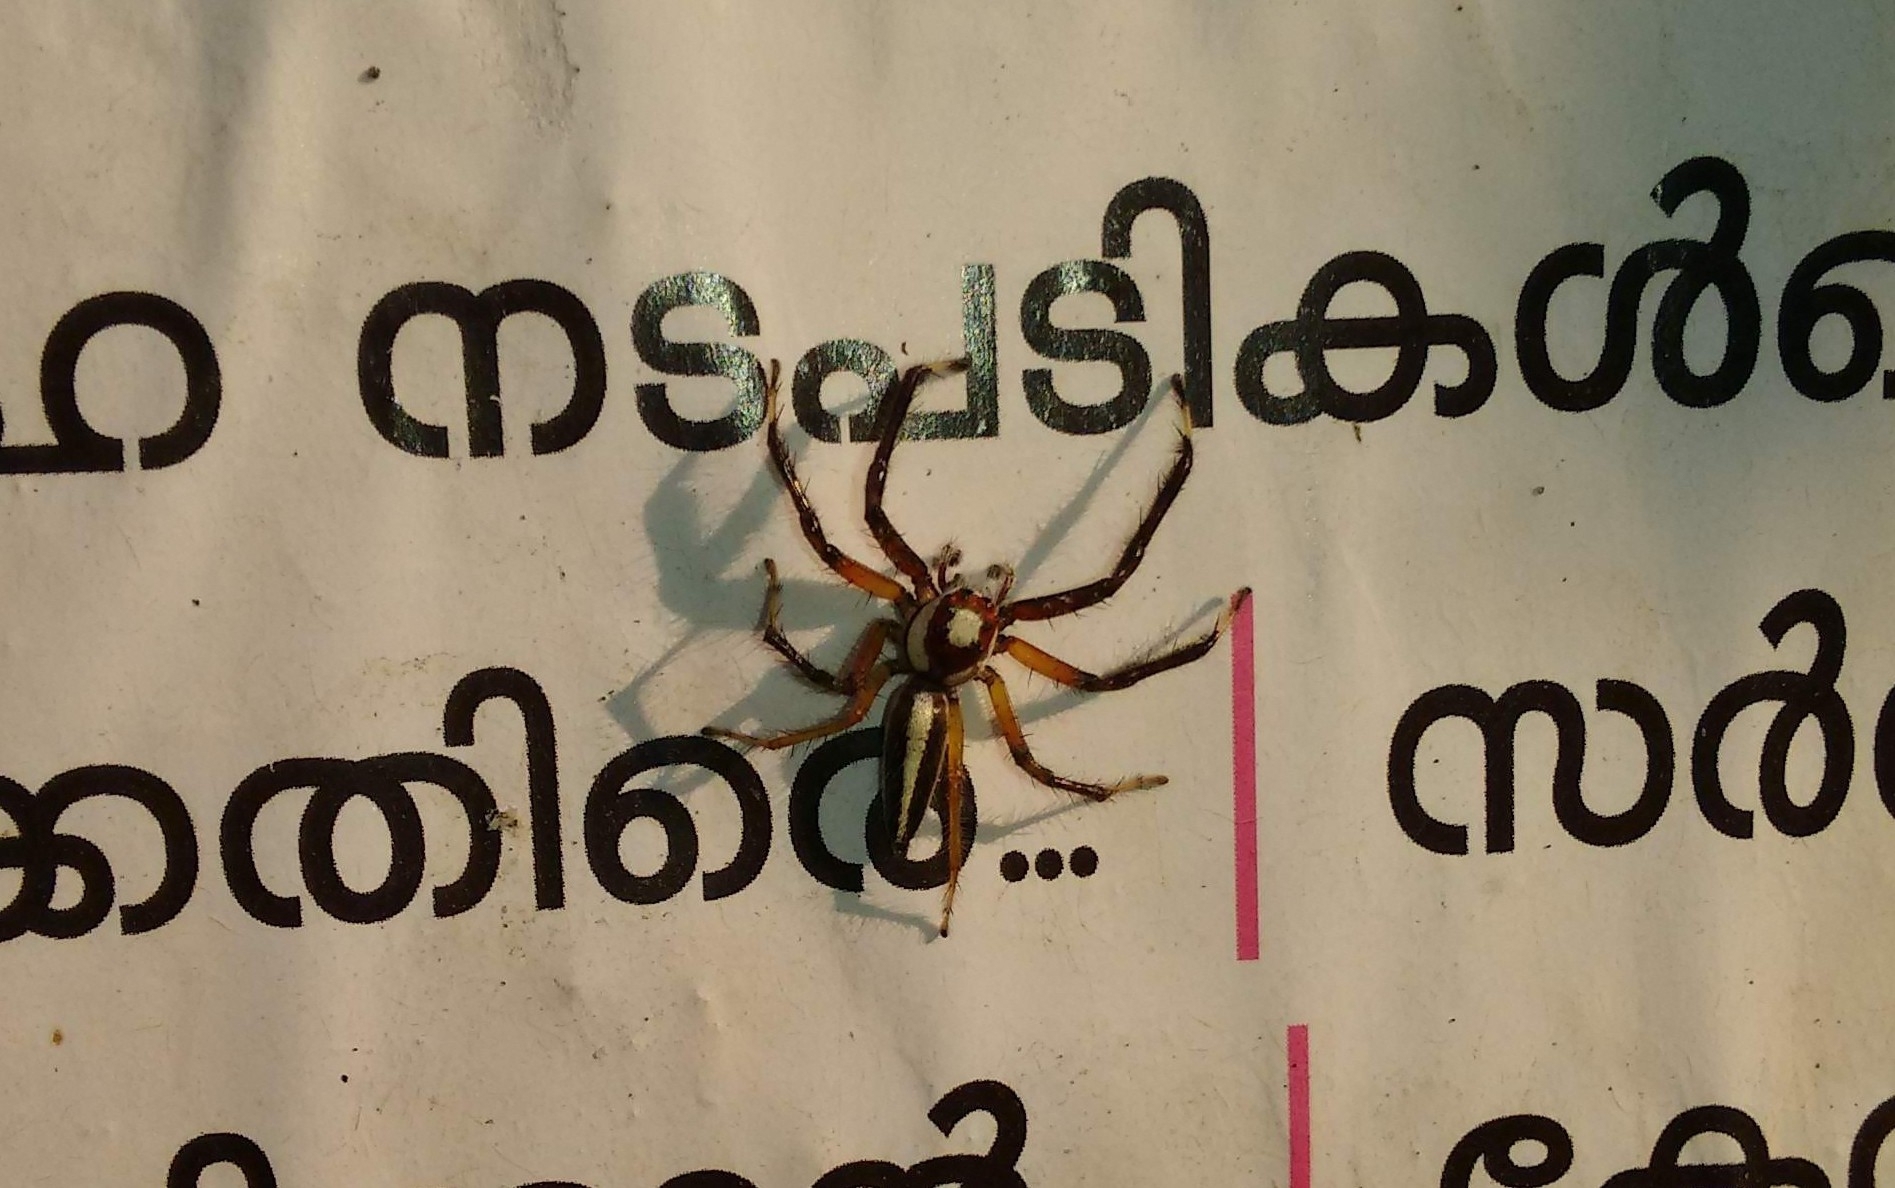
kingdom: Animalia
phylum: Arthropoda
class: Arachnida
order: Araneae
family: Salticidae
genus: Telamonia
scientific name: Telamonia dimidiata
